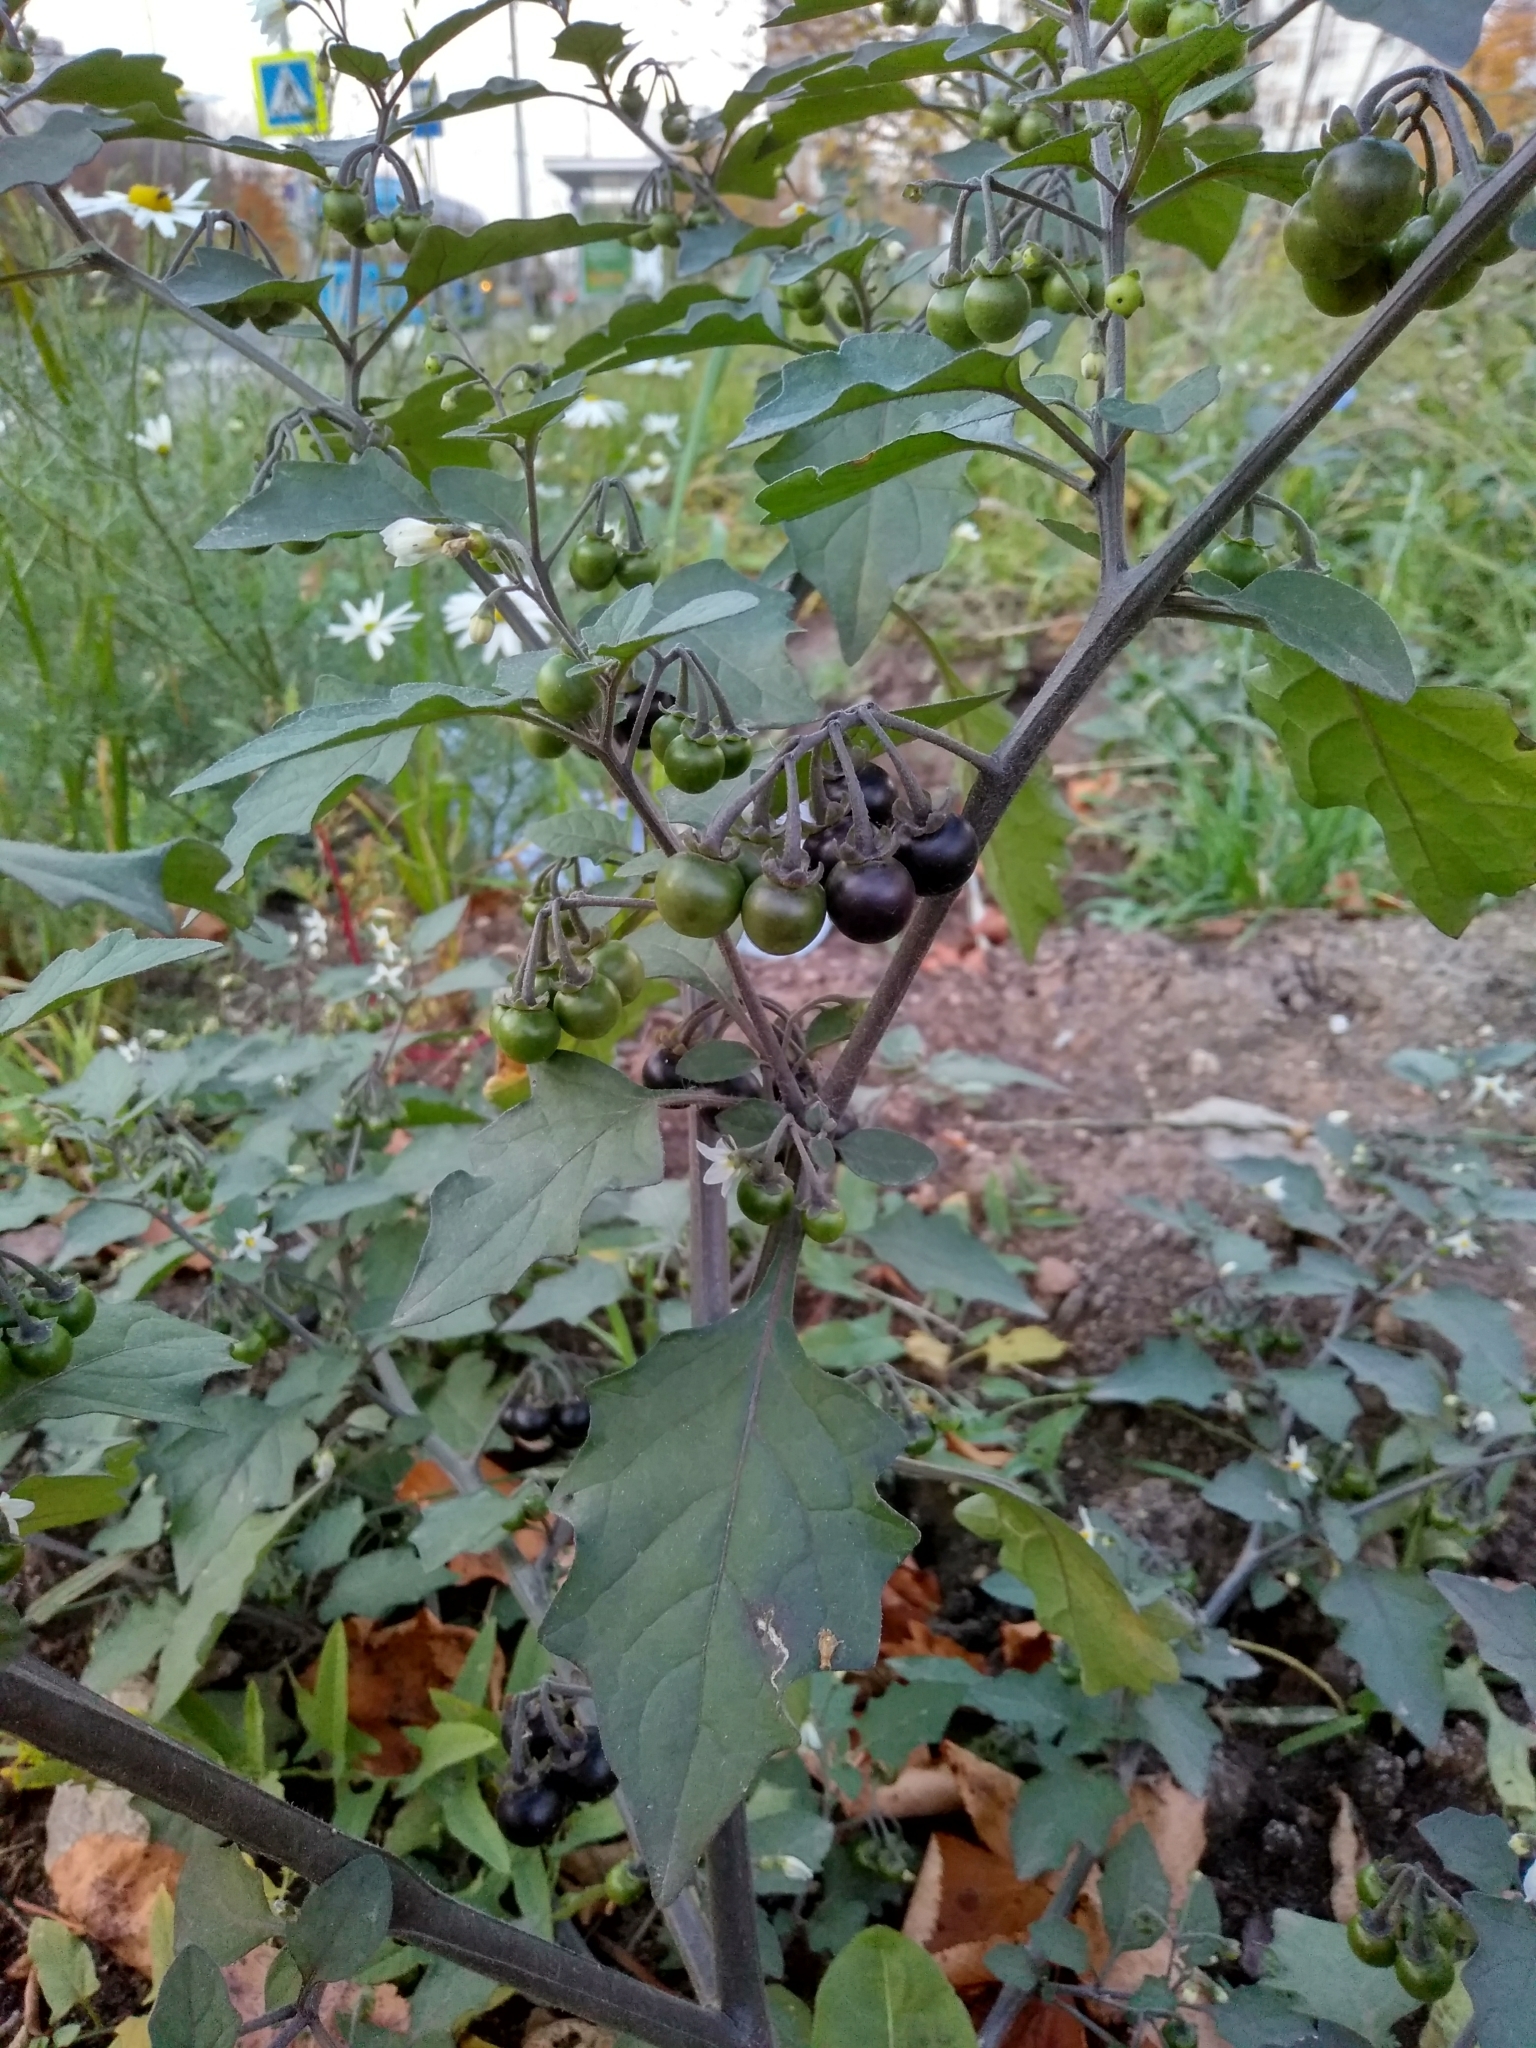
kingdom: Plantae
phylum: Tracheophyta
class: Magnoliopsida
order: Solanales
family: Solanaceae
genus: Solanum
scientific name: Solanum nigrum
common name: Black nightshade
